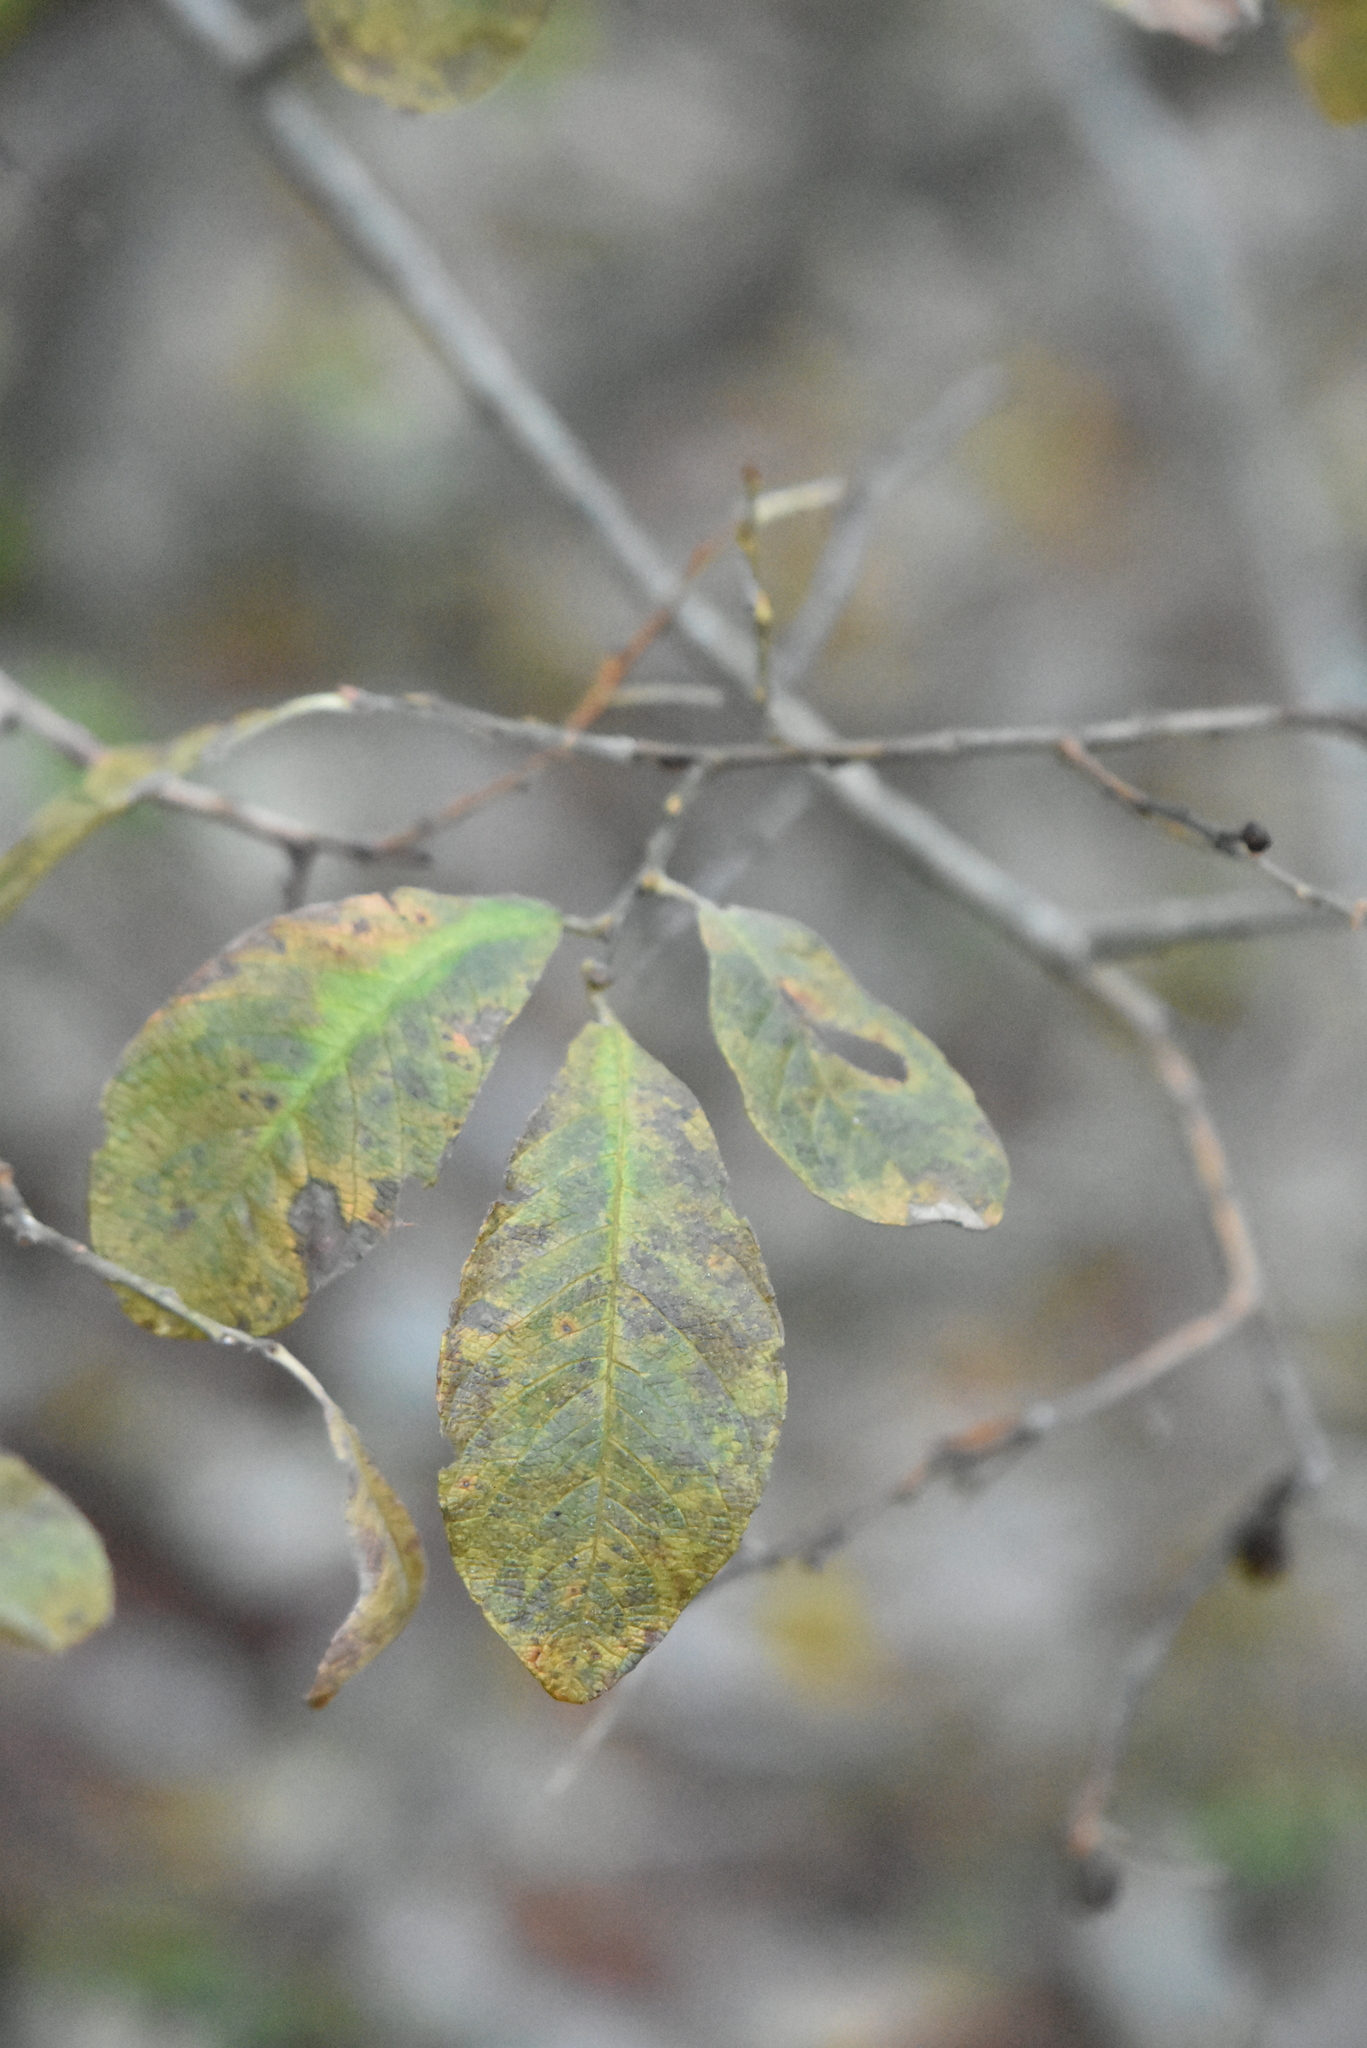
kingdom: Plantae
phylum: Tracheophyta
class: Magnoliopsida
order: Malpighiales
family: Salicaceae
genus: Salix
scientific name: Salix aurita
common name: Eared willow
